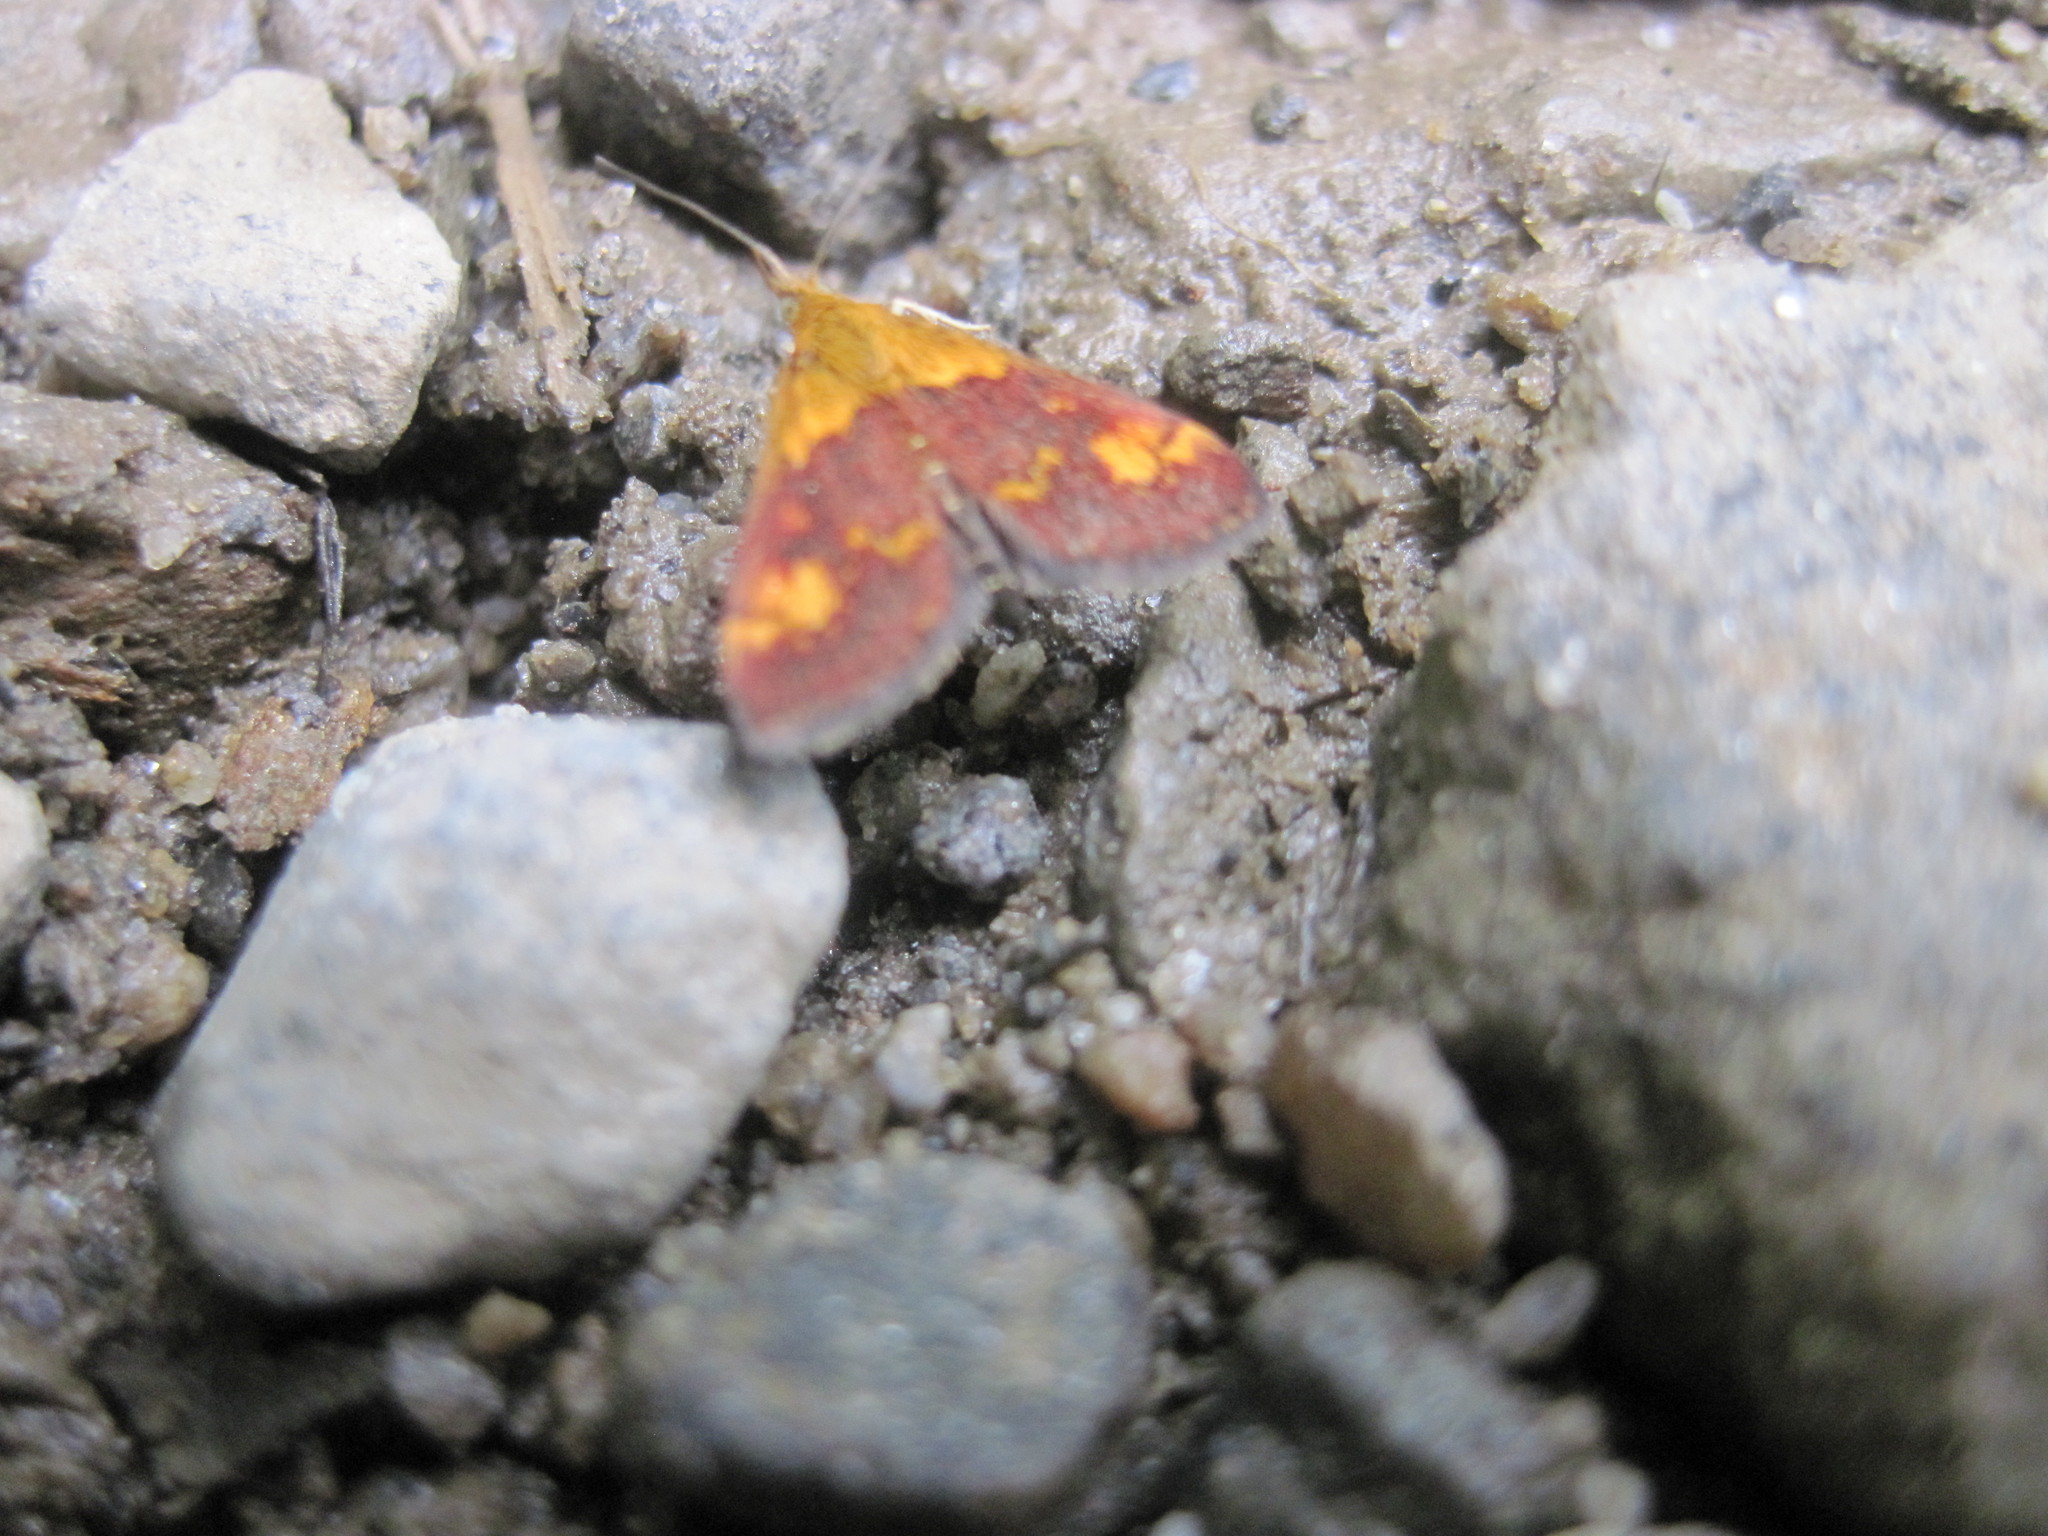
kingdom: Animalia
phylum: Arthropoda
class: Insecta
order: Lepidoptera
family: Crambidae
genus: Pyrausta
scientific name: Pyrausta orphisalis
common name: Orange mint moth
